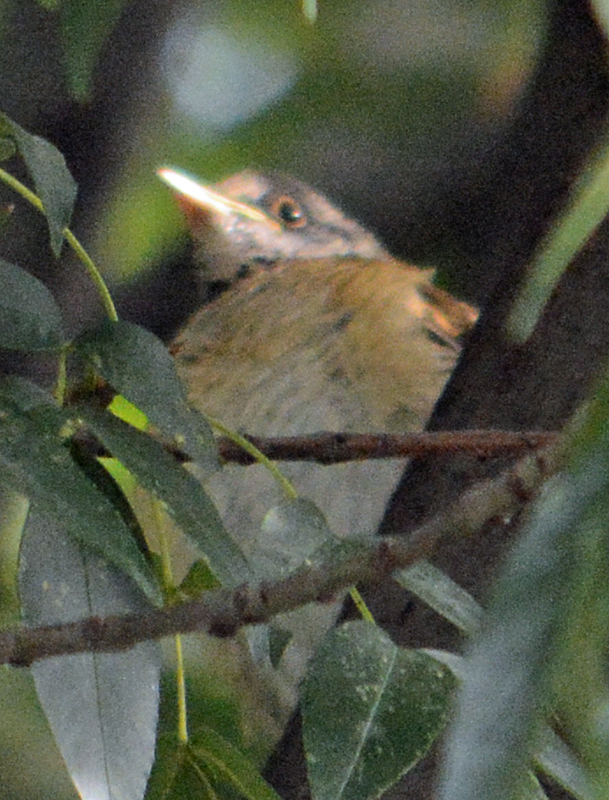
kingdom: Animalia
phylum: Chordata
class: Aves
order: Passeriformes
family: Turdidae
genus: Turdus
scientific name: Turdus rufopalliatus
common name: Rufous-backed robin
